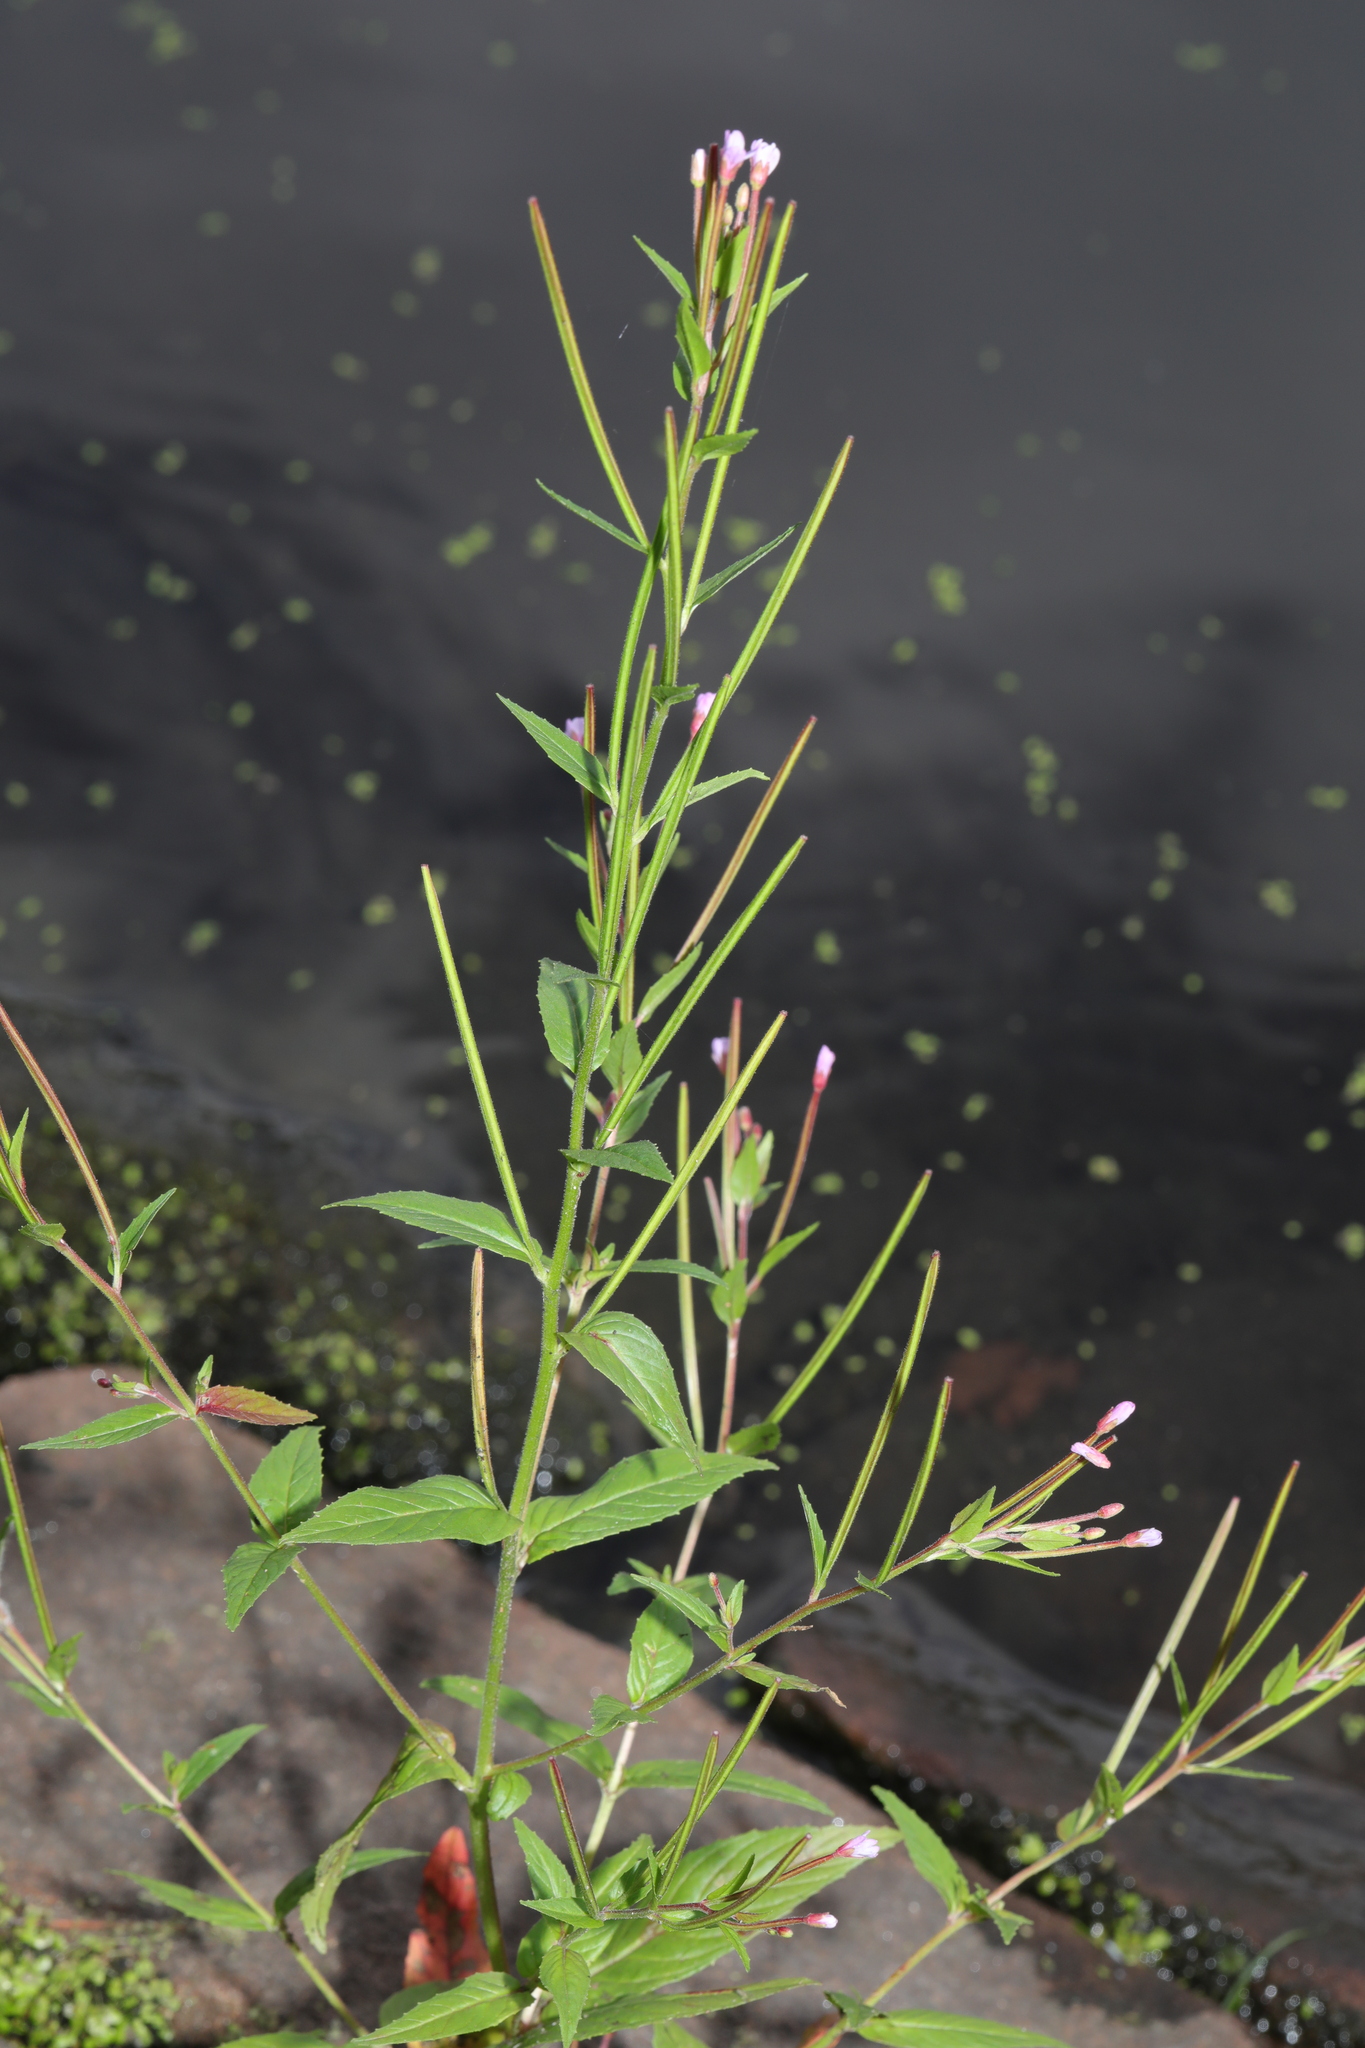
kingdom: Plantae
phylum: Tracheophyta
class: Magnoliopsida
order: Myrtales
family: Onagraceae
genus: Epilobium
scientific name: Epilobium ciliatum
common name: American willowherb
